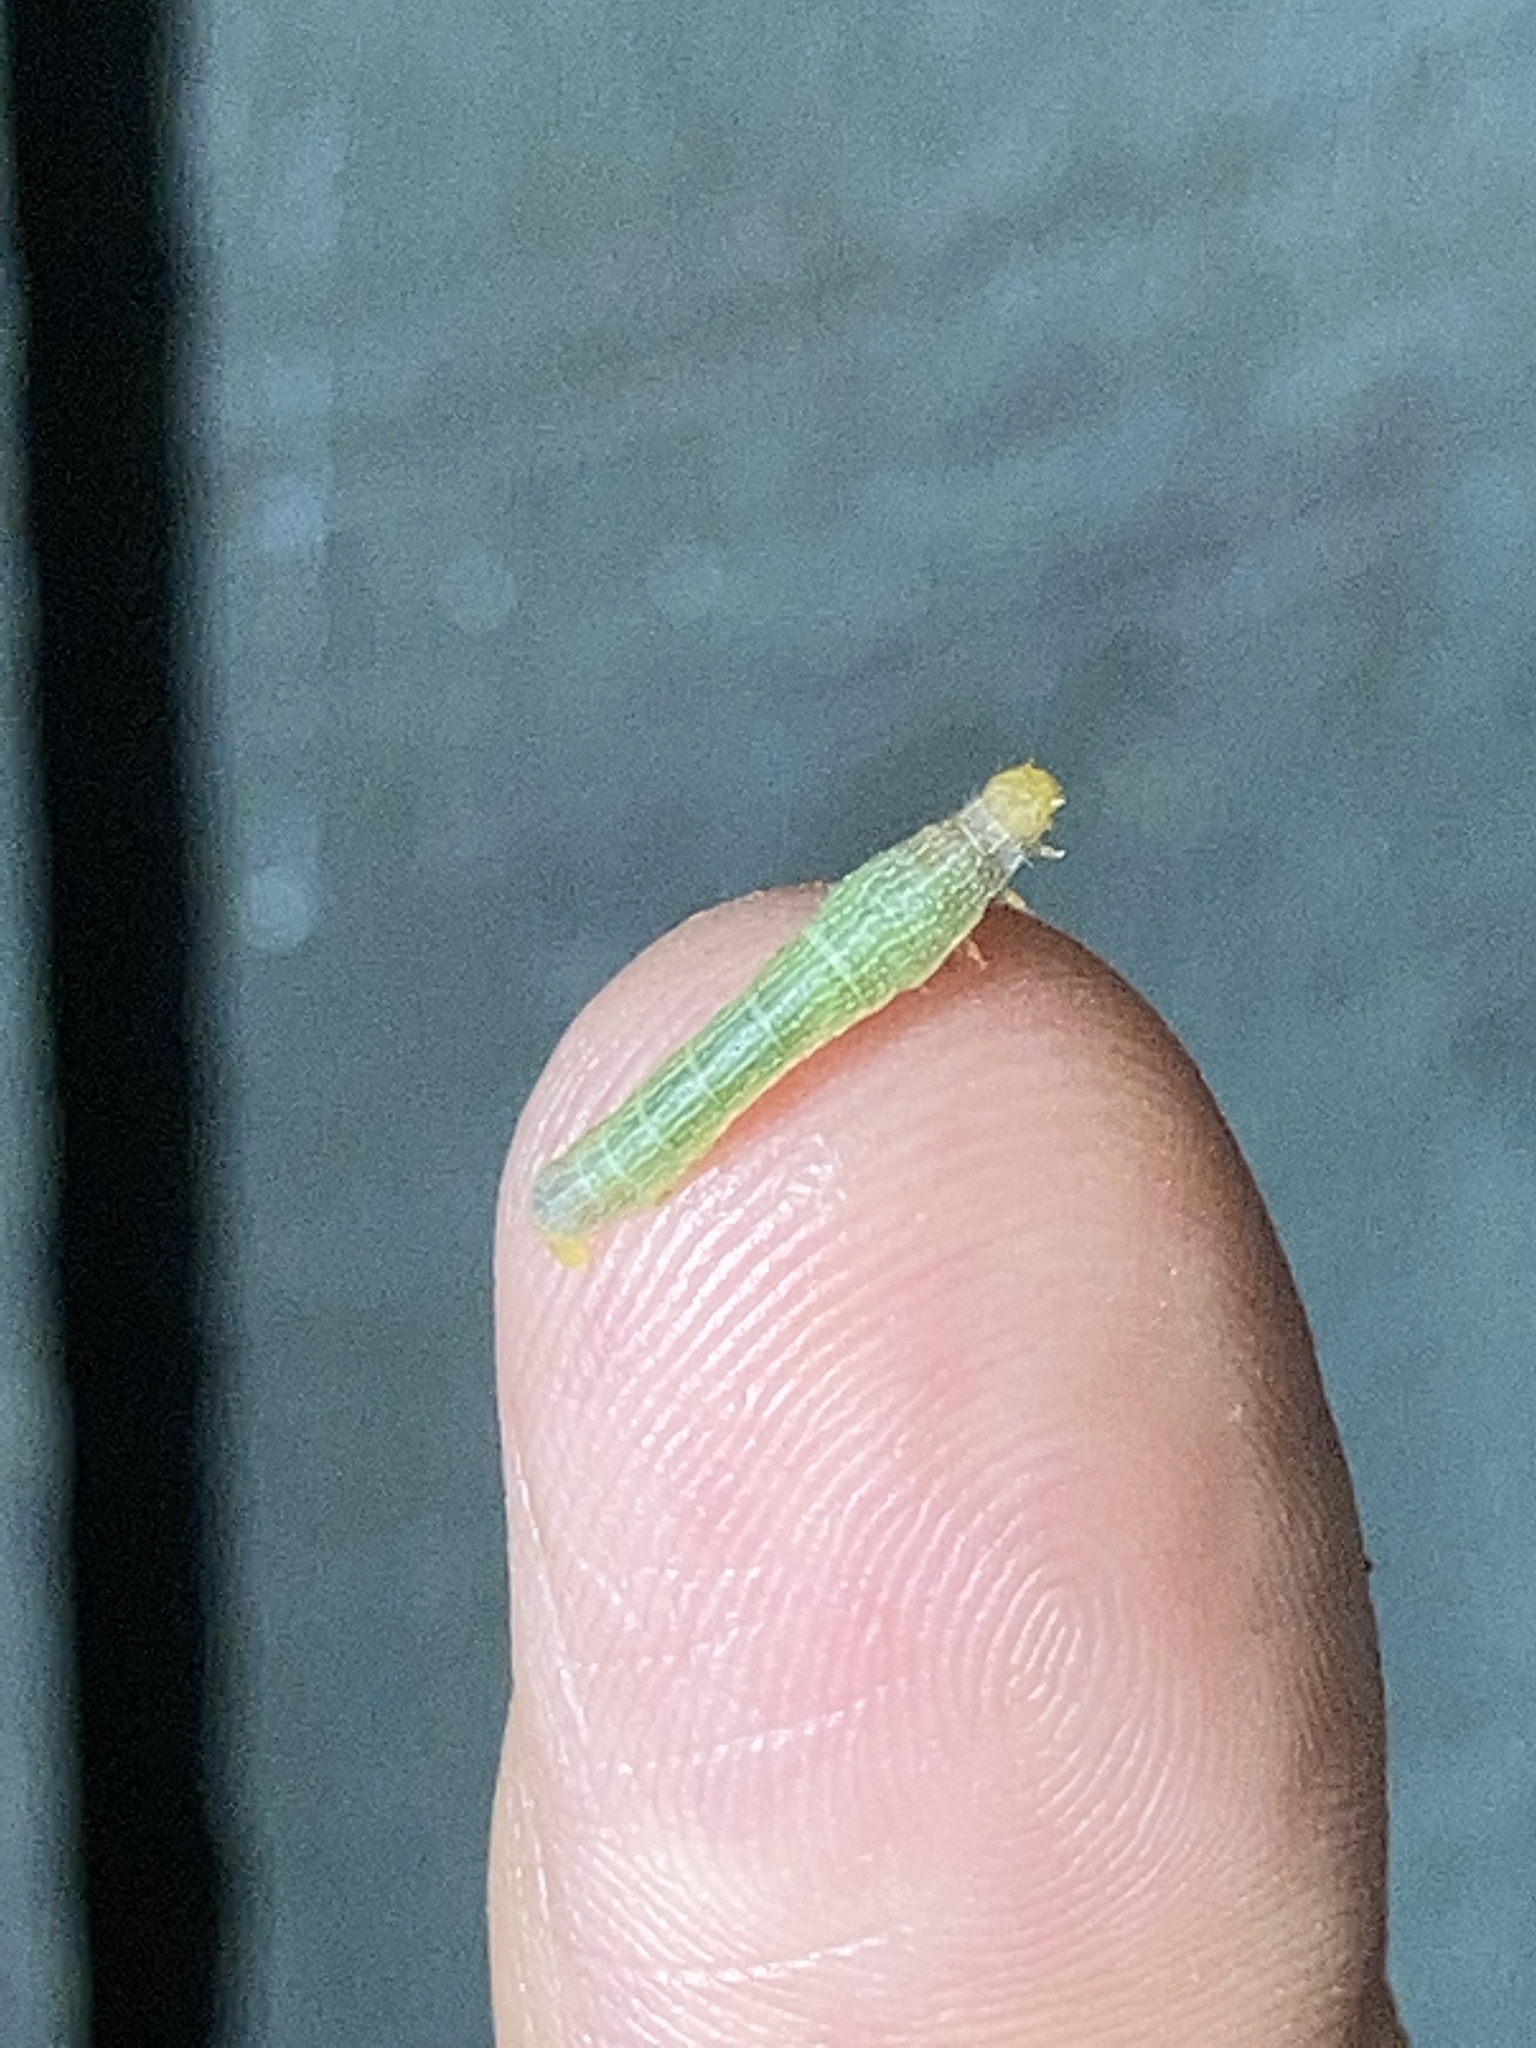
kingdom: Animalia
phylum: Arthropoda
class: Insecta
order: Lepidoptera
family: Geometridae
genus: Epimecis
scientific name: Epimecis hortaria
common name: Tulip-tree beauty
